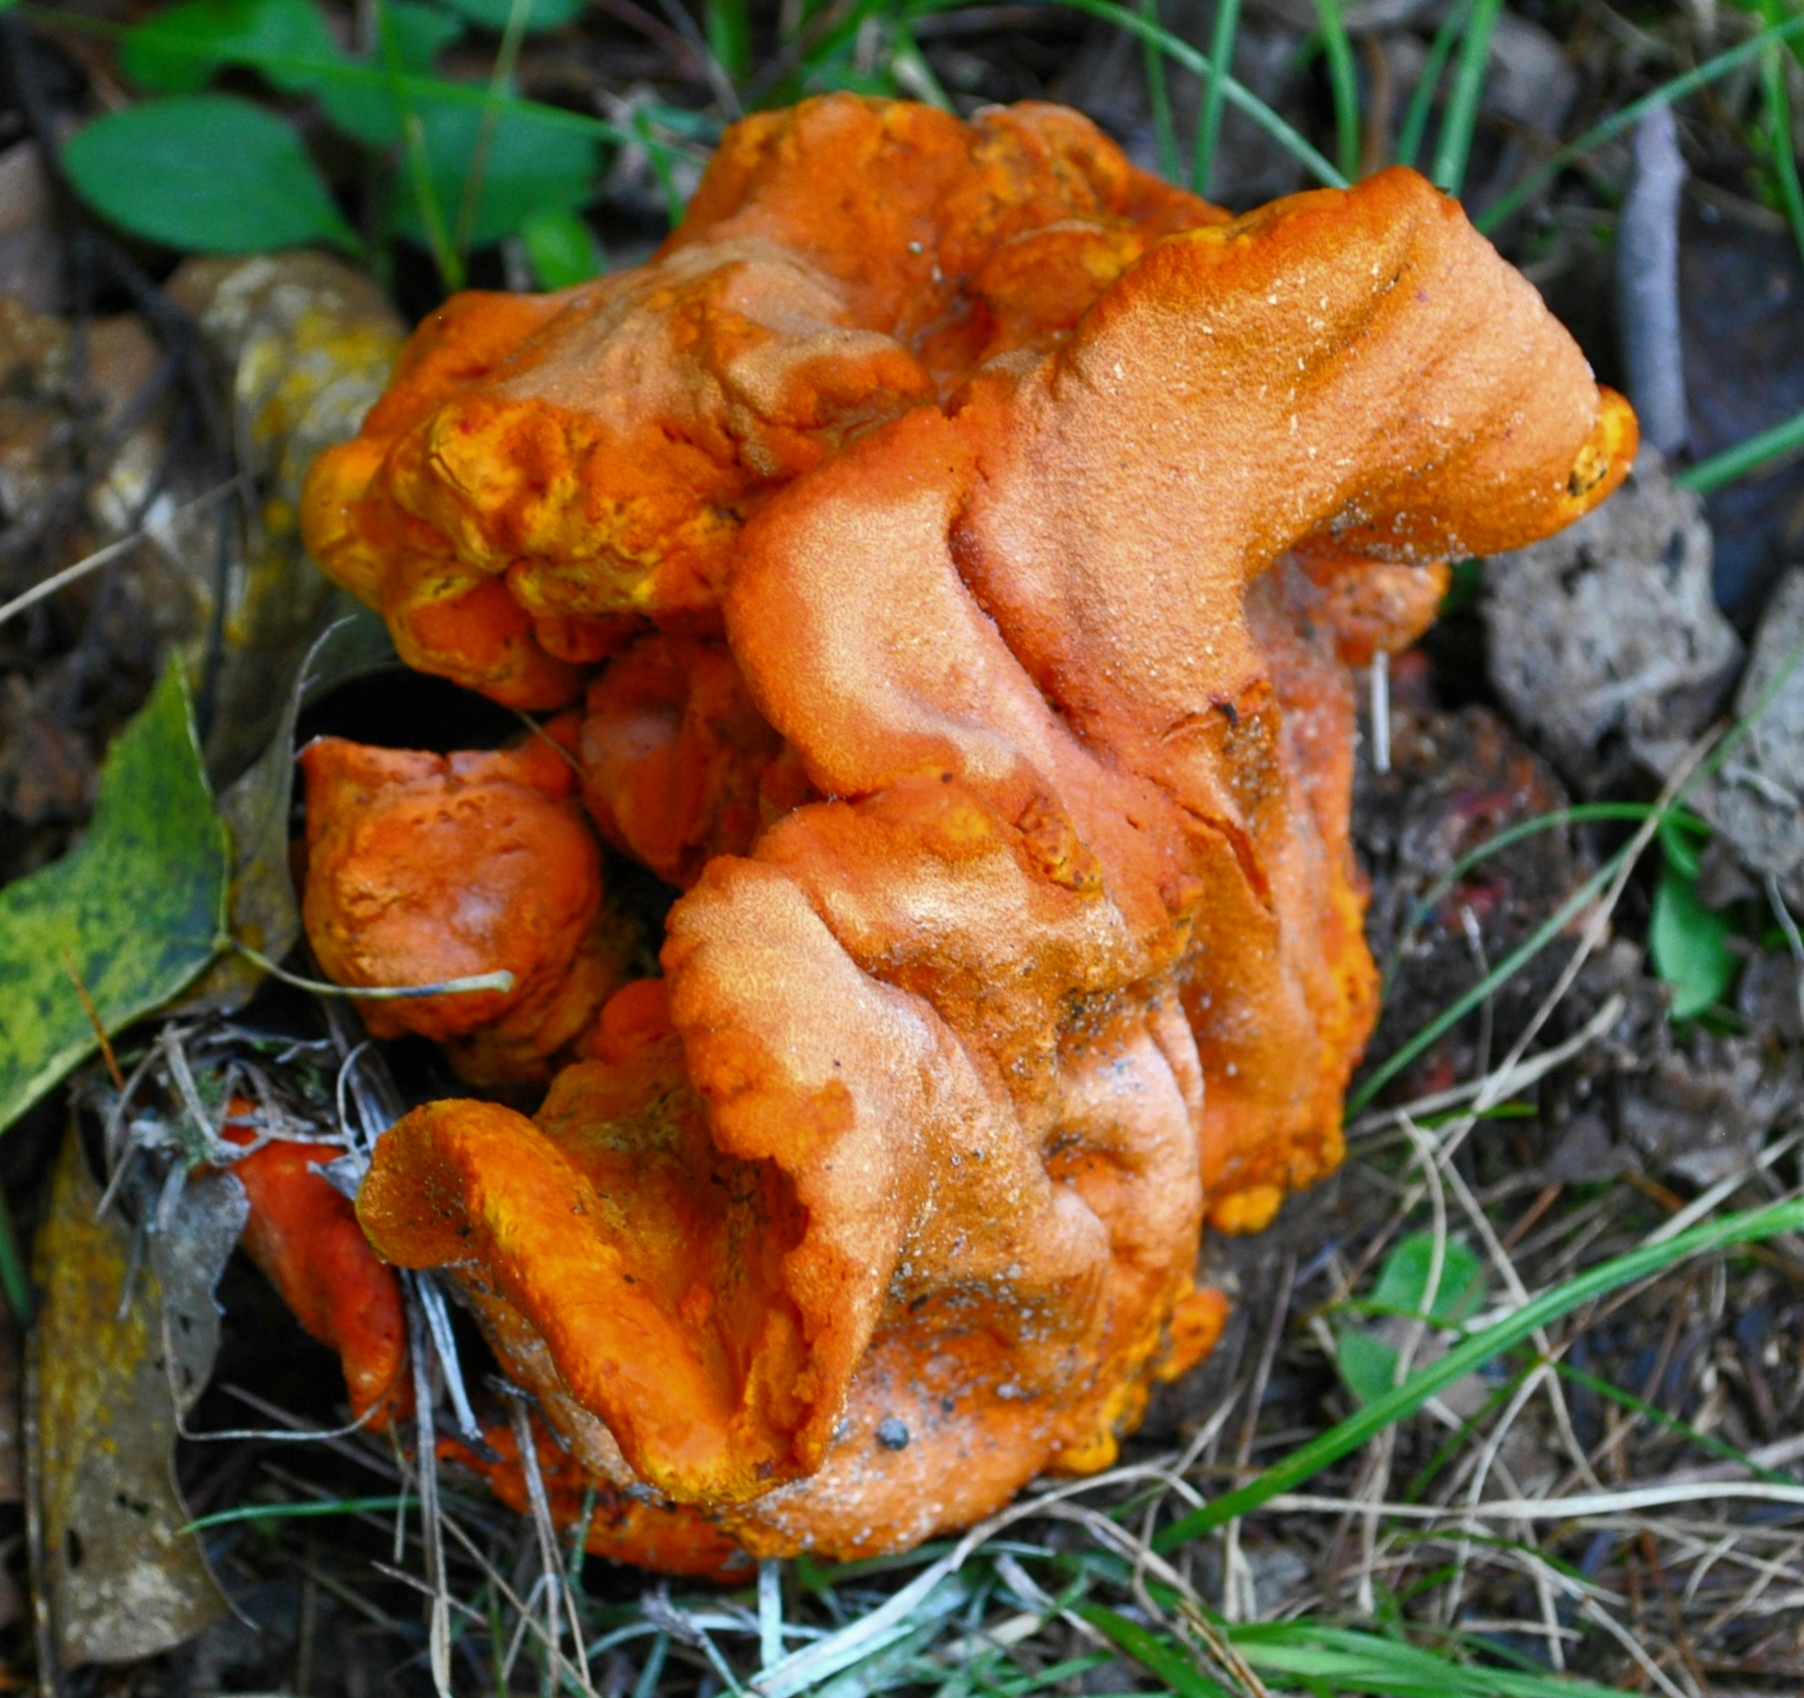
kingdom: Fungi
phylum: Ascomycota
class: Sordariomycetes
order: Hypocreales
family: Hypocreaceae
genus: Hypomyces
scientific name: Hypomyces lactifluorum
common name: Lobster mushroom
